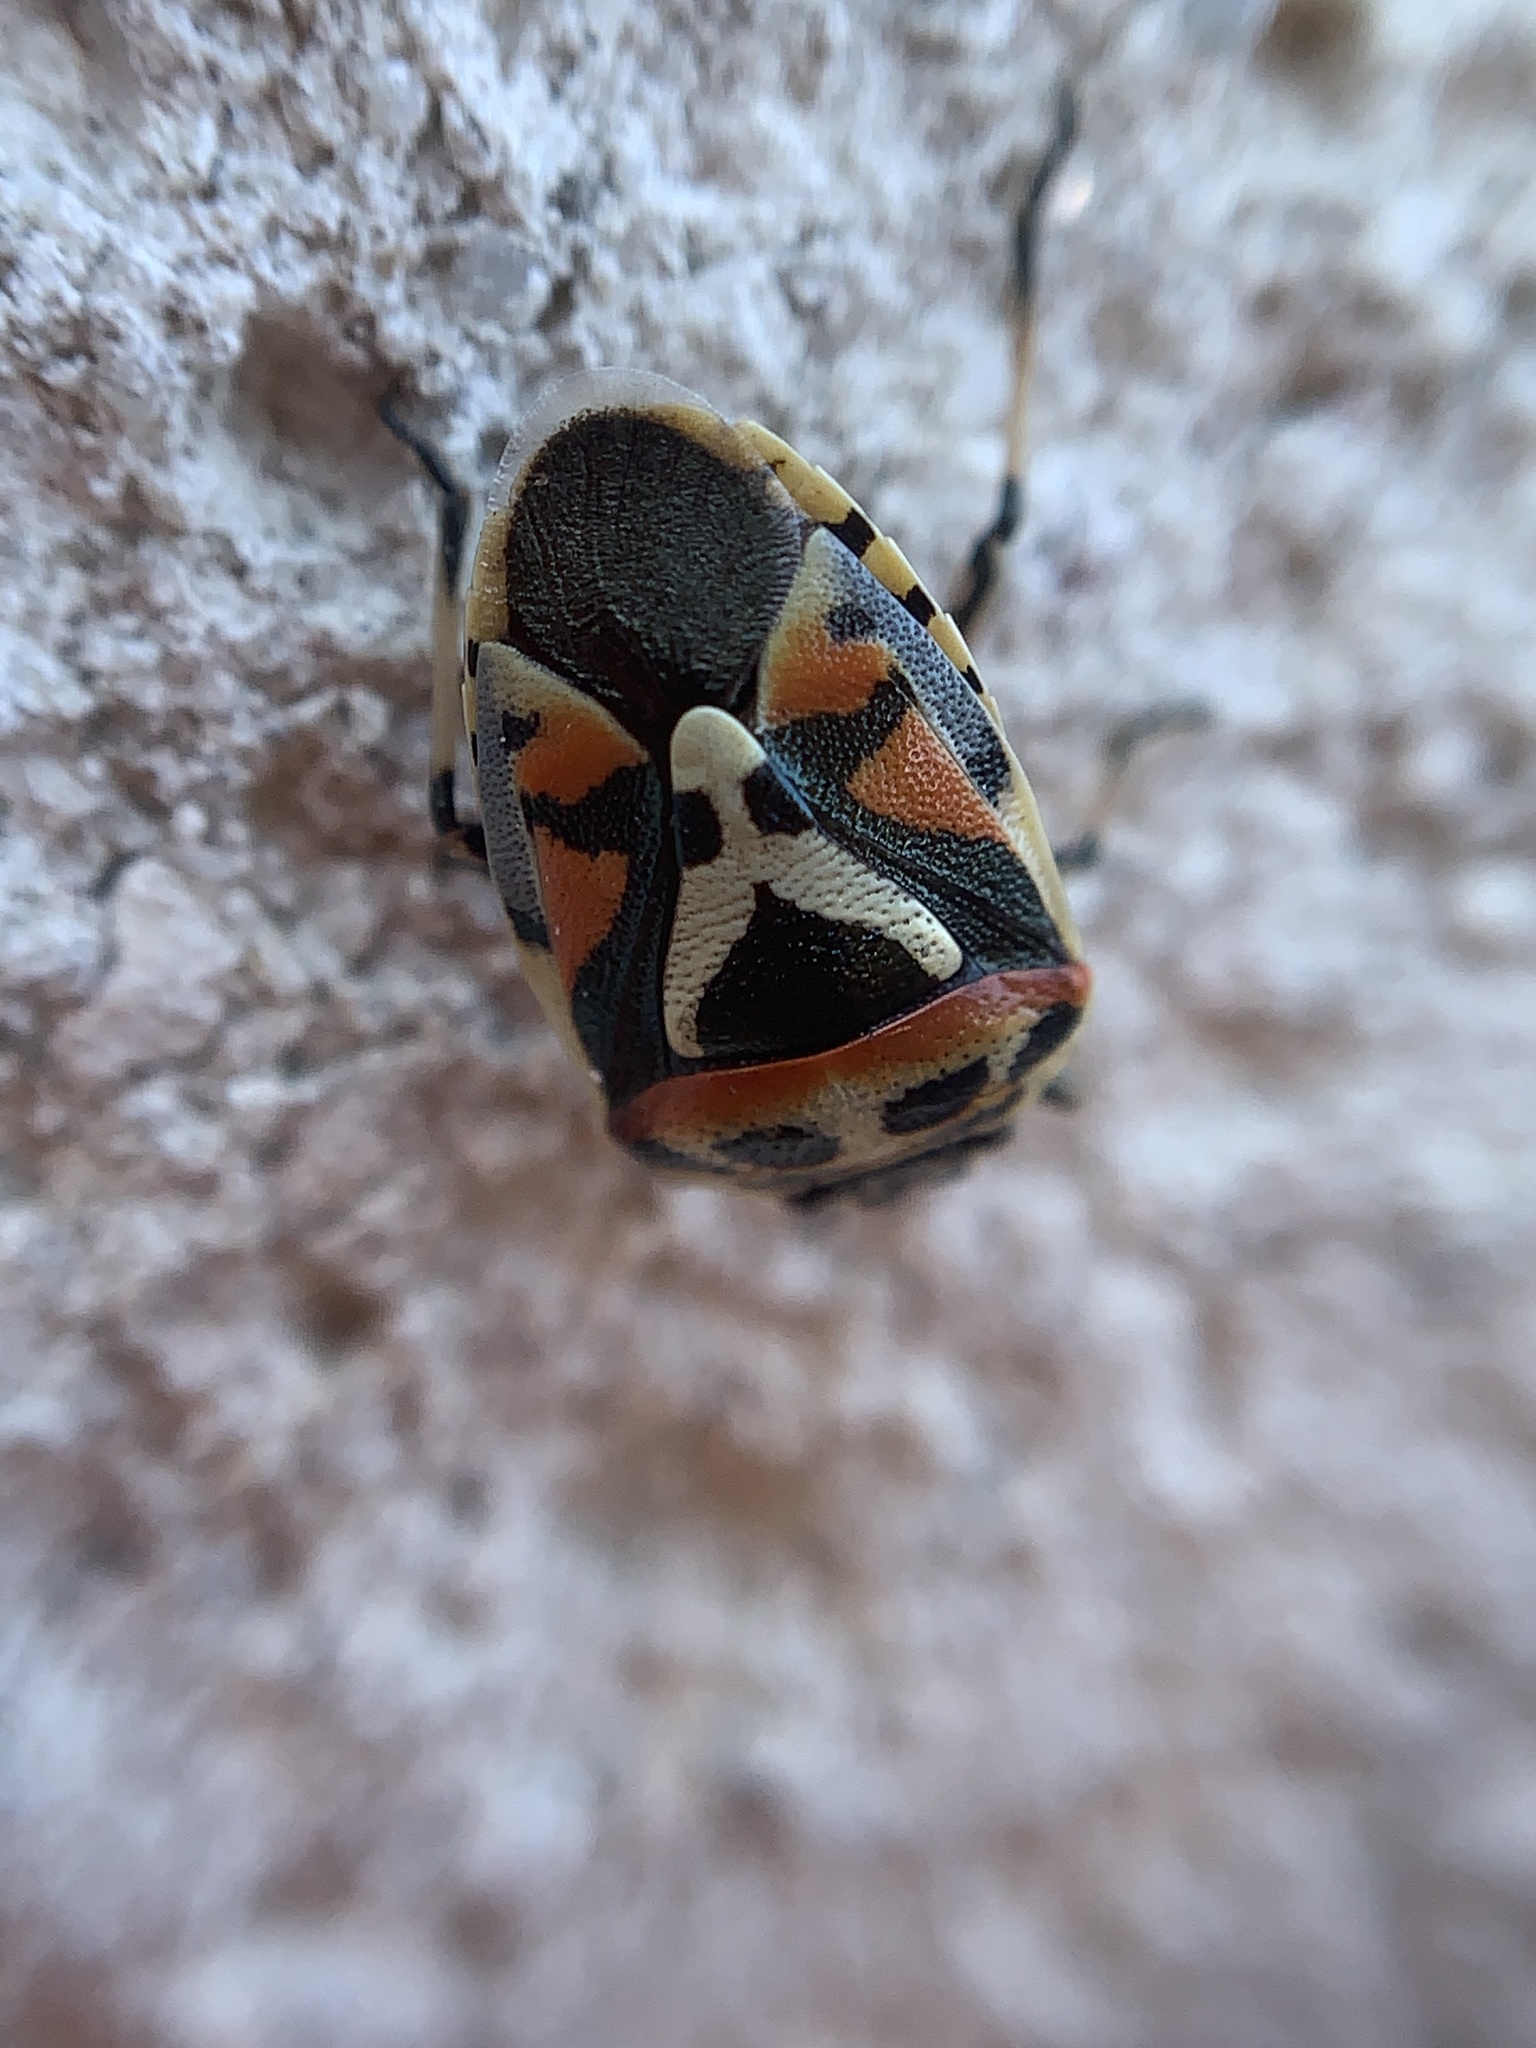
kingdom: Animalia
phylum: Arthropoda
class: Insecta
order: Hemiptera
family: Pentatomidae
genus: Eurydema
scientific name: Eurydema ornata
